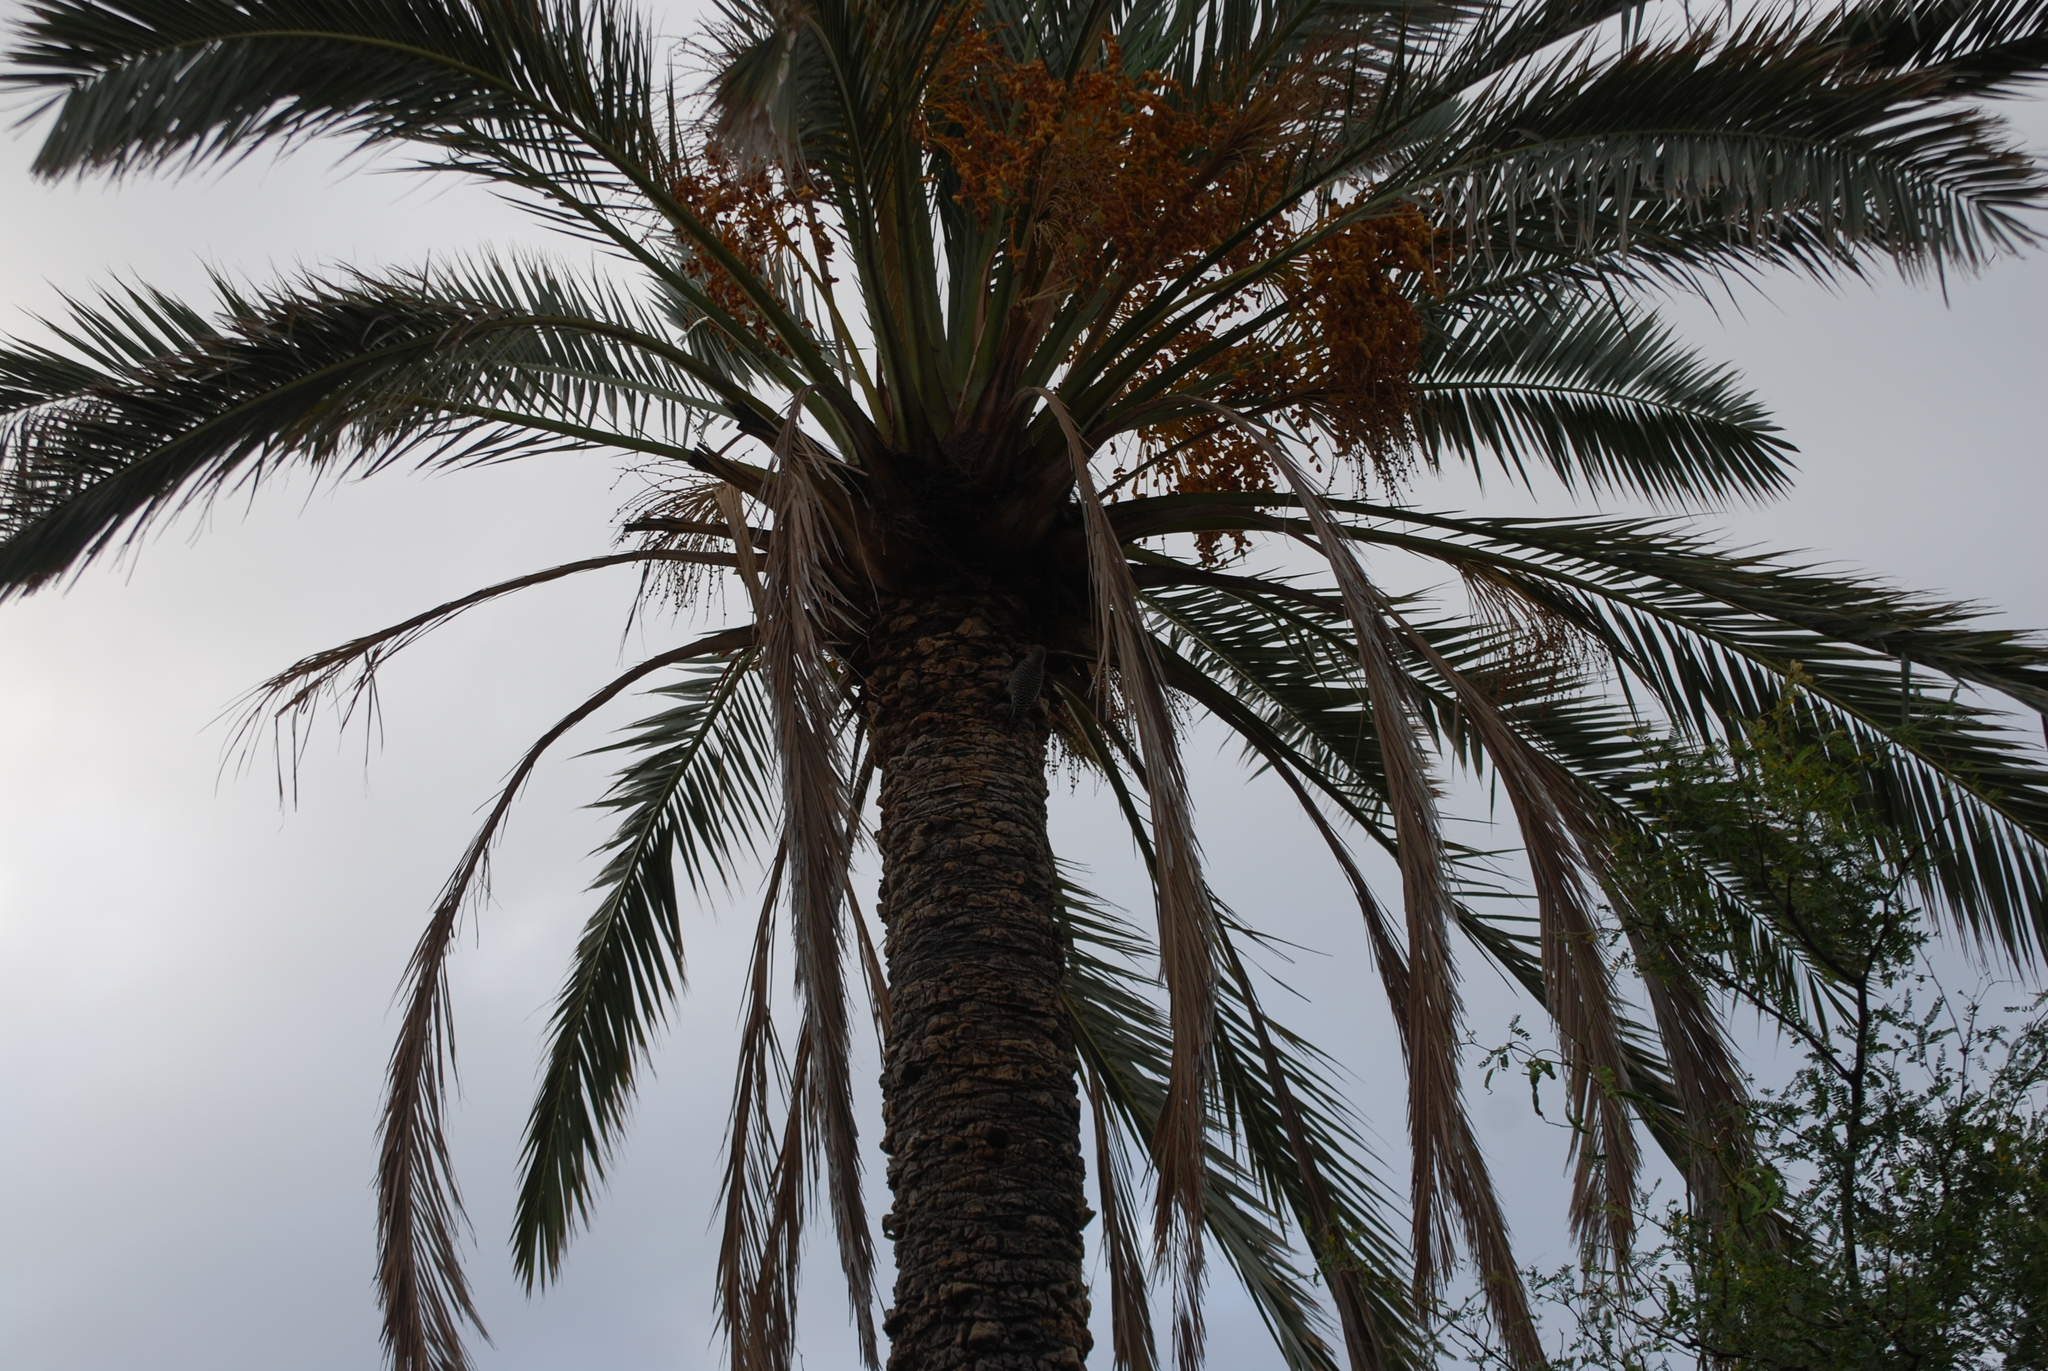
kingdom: Animalia
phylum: Chordata
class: Aves
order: Piciformes
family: Picidae
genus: Melanerpes
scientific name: Melanerpes uropygialis
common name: Gila woodpecker
